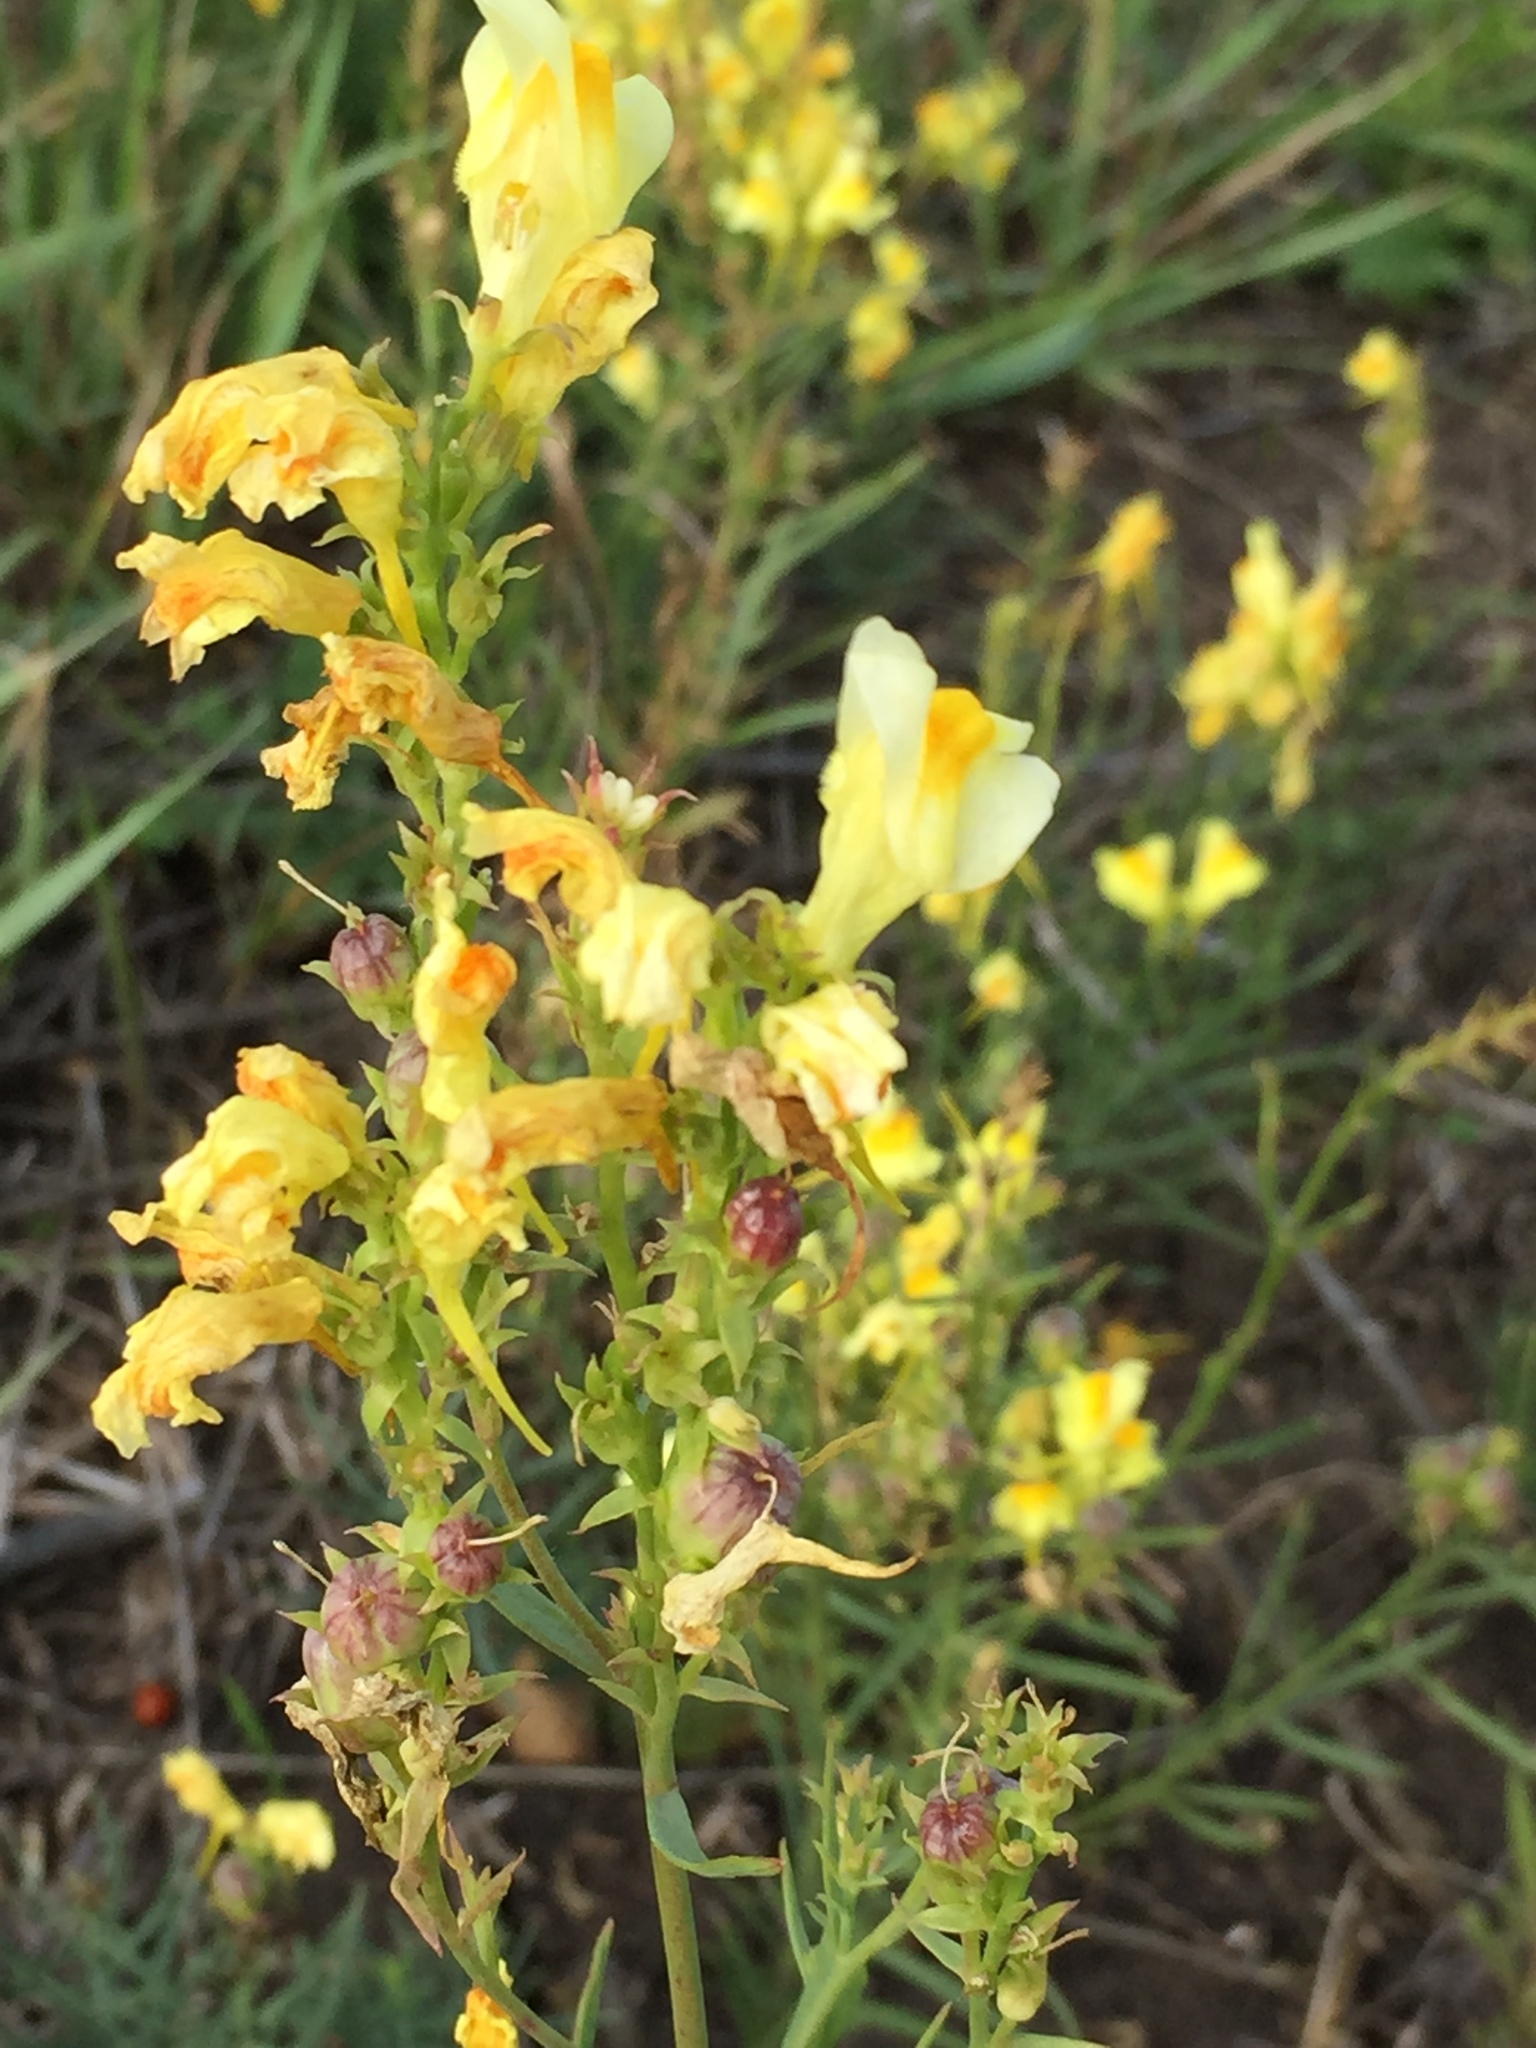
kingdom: Plantae
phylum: Tracheophyta
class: Magnoliopsida
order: Lamiales
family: Plantaginaceae
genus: Linaria
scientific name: Linaria vulgaris
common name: Butter and eggs
